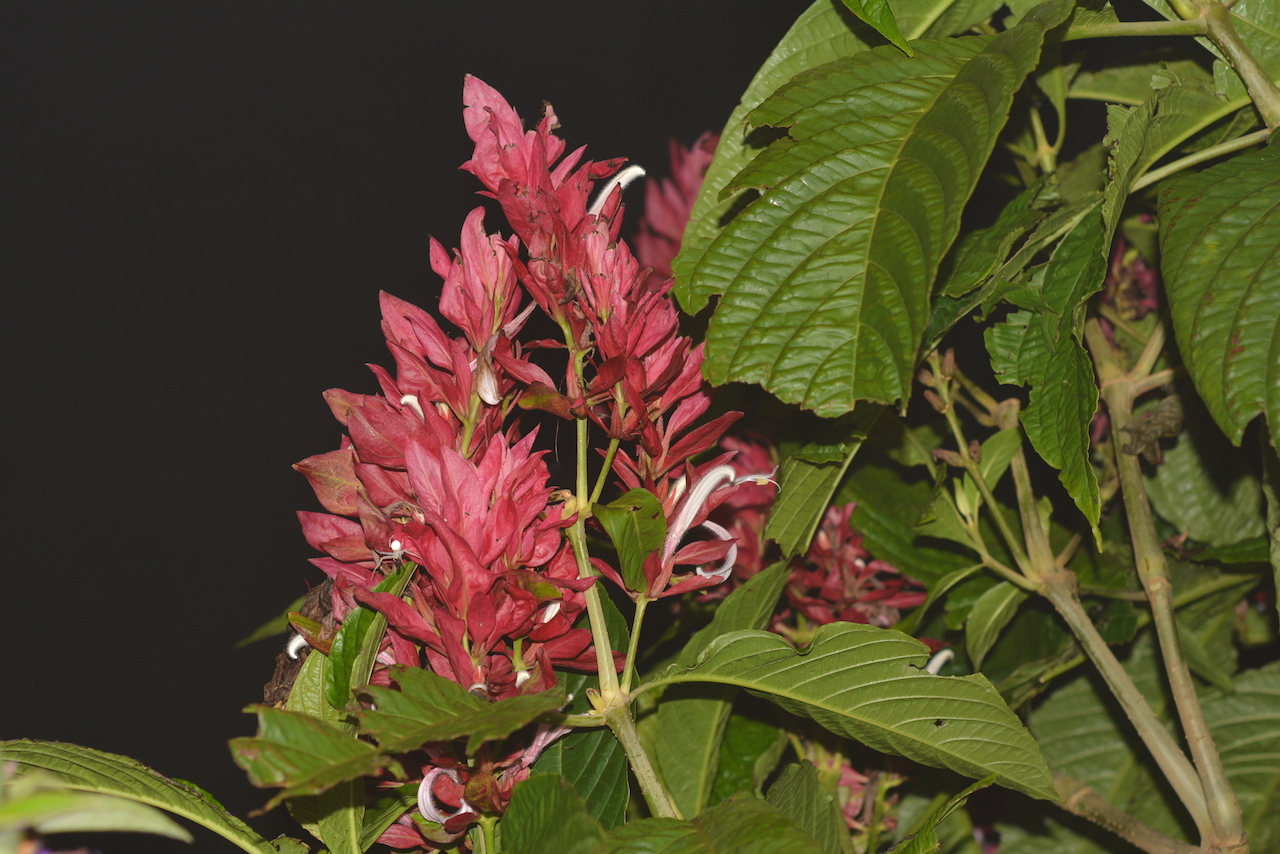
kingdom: Plantae
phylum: Tracheophyta
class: Magnoliopsida
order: Lamiales
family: Acanthaceae
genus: Megaskepasma
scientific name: Megaskepasma erythrochlamys
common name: Brazilian red-cloak
